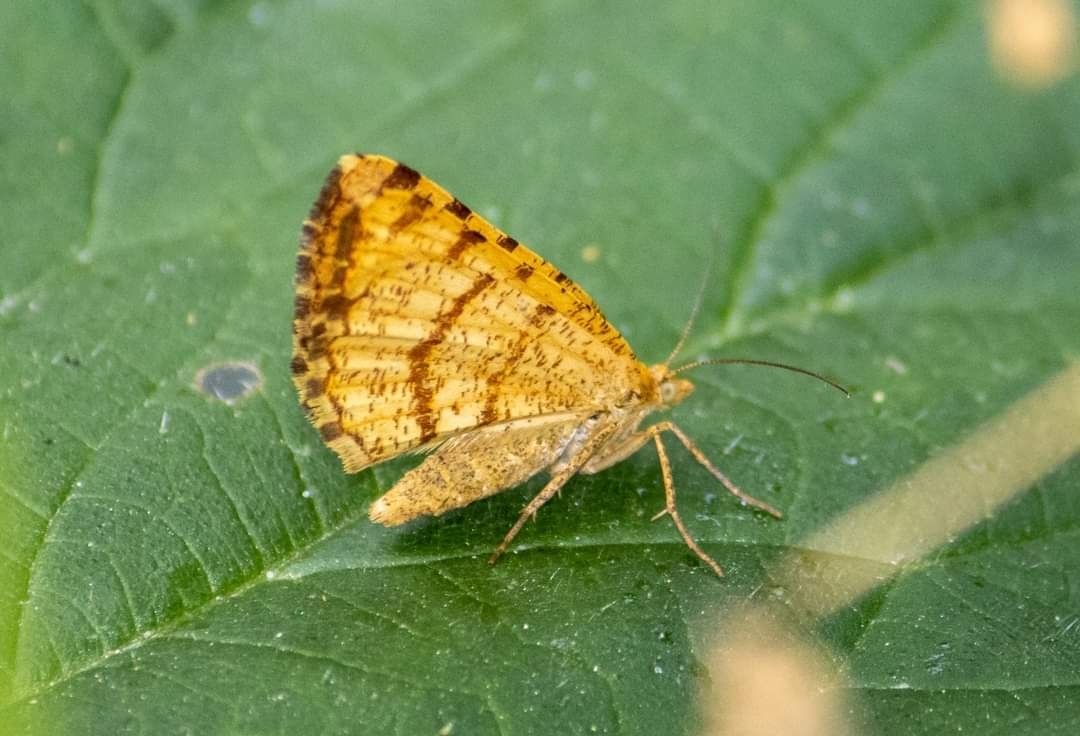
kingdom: Animalia
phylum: Arthropoda
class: Insecta
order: Lepidoptera
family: Geometridae
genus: Macaria
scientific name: Macaria brunneata
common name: Rannoch looper
